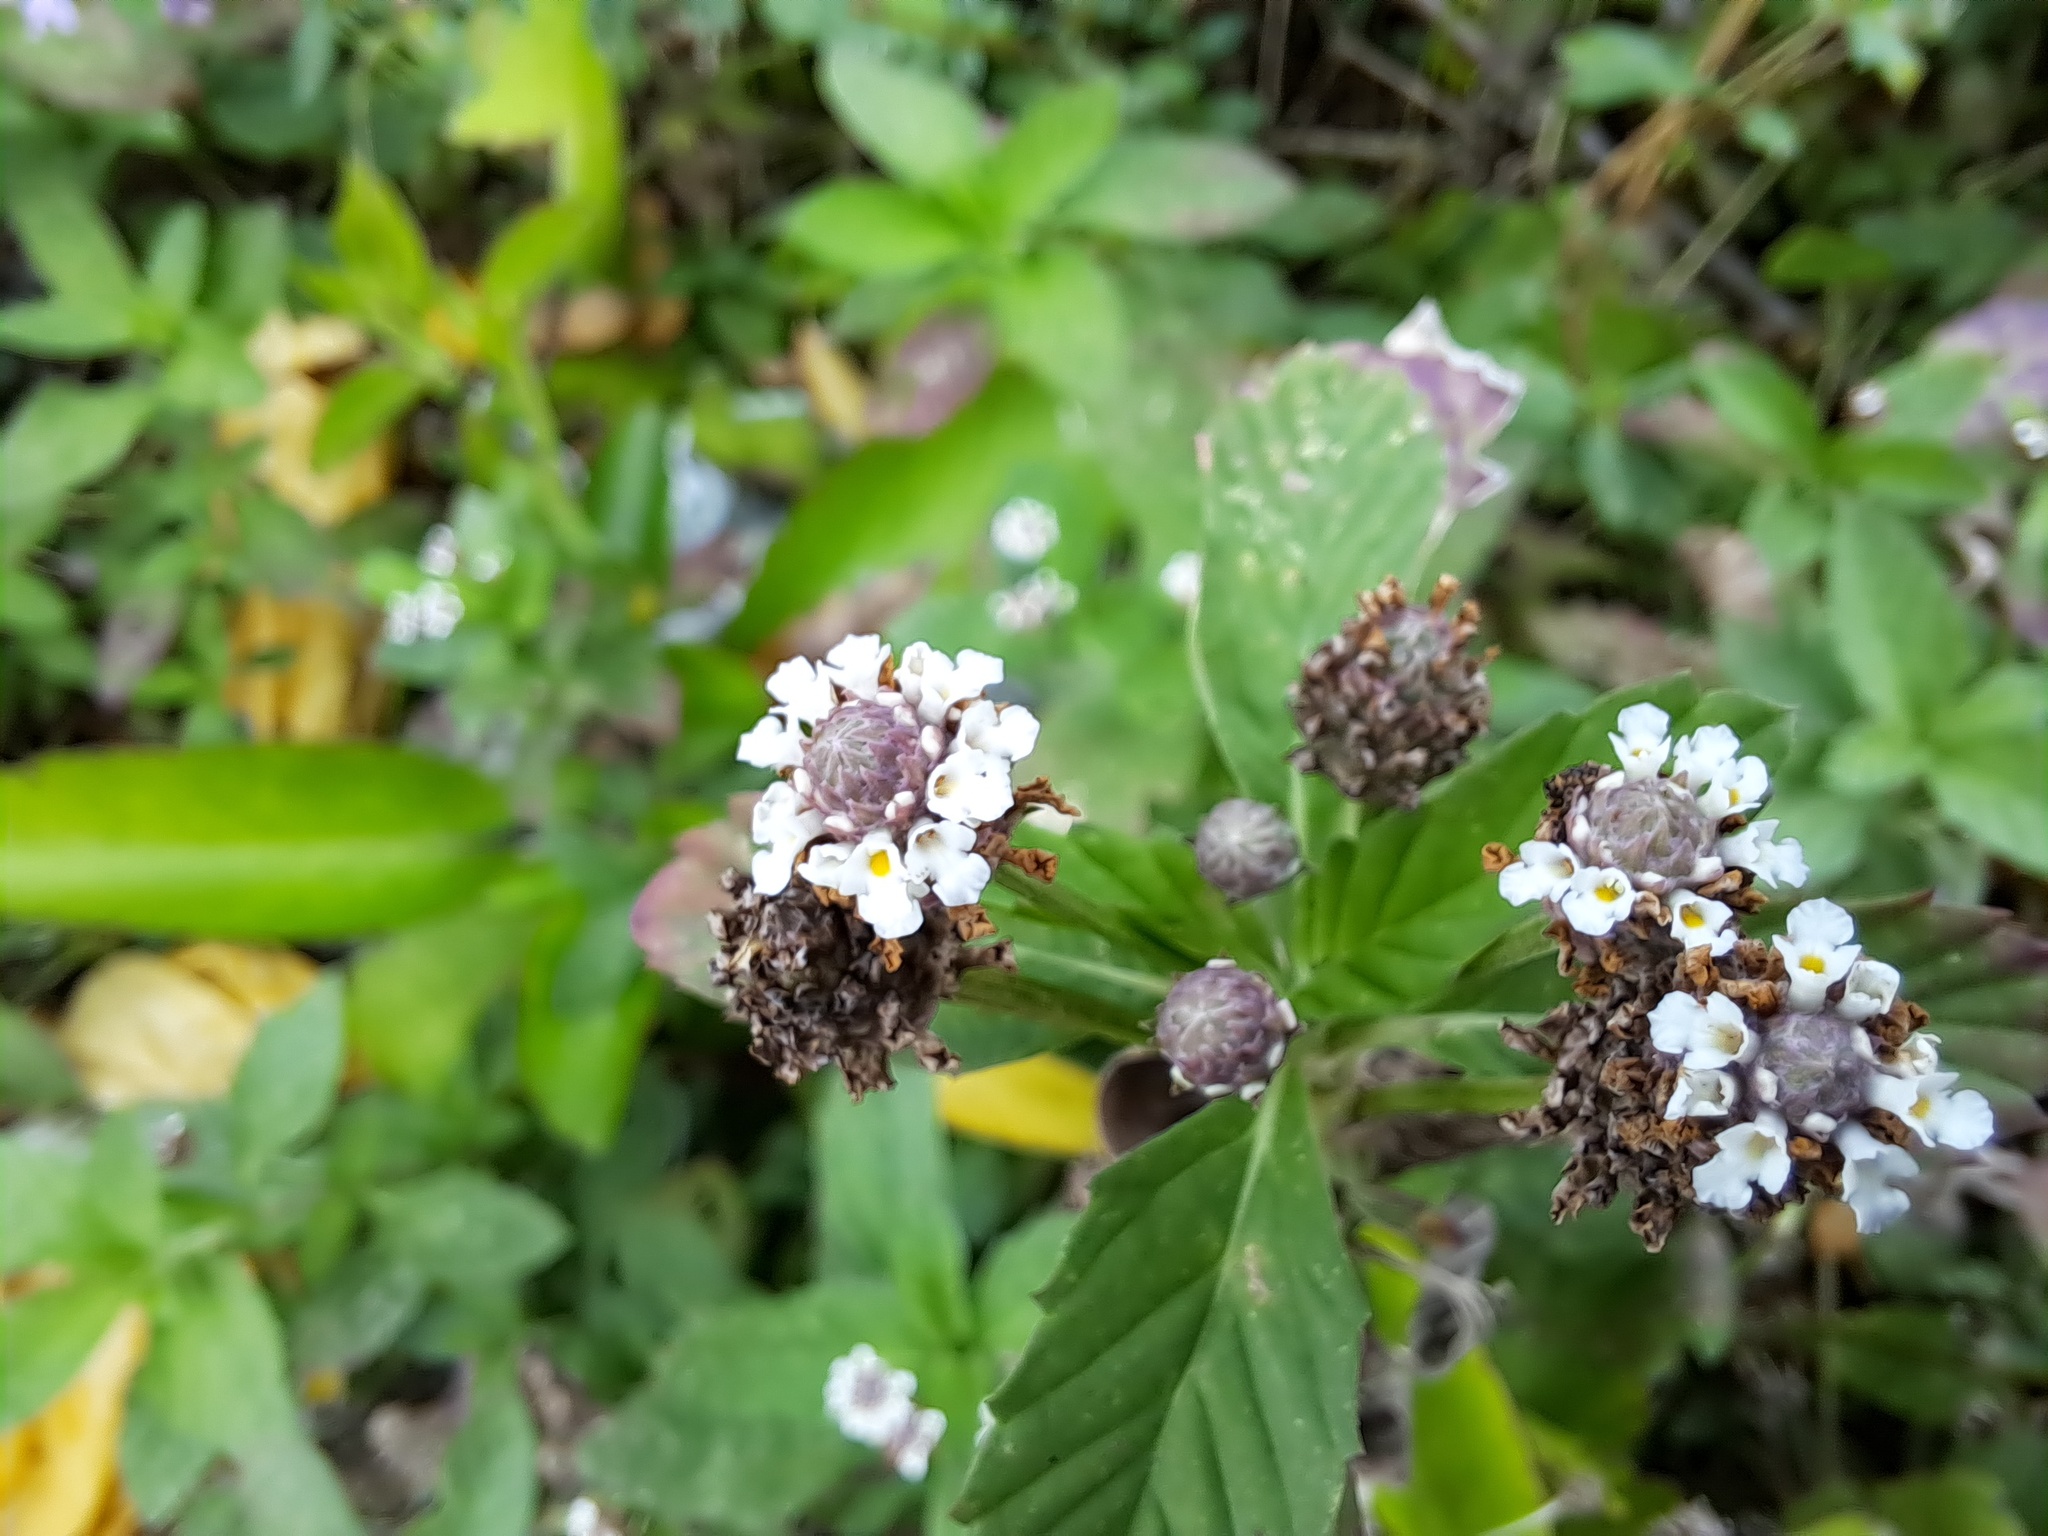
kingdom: Plantae
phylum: Tracheophyta
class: Magnoliopsida
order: Lamiales
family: Verbenaceae
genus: Phyla
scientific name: Phyla nodiflora
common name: Frogfruit
